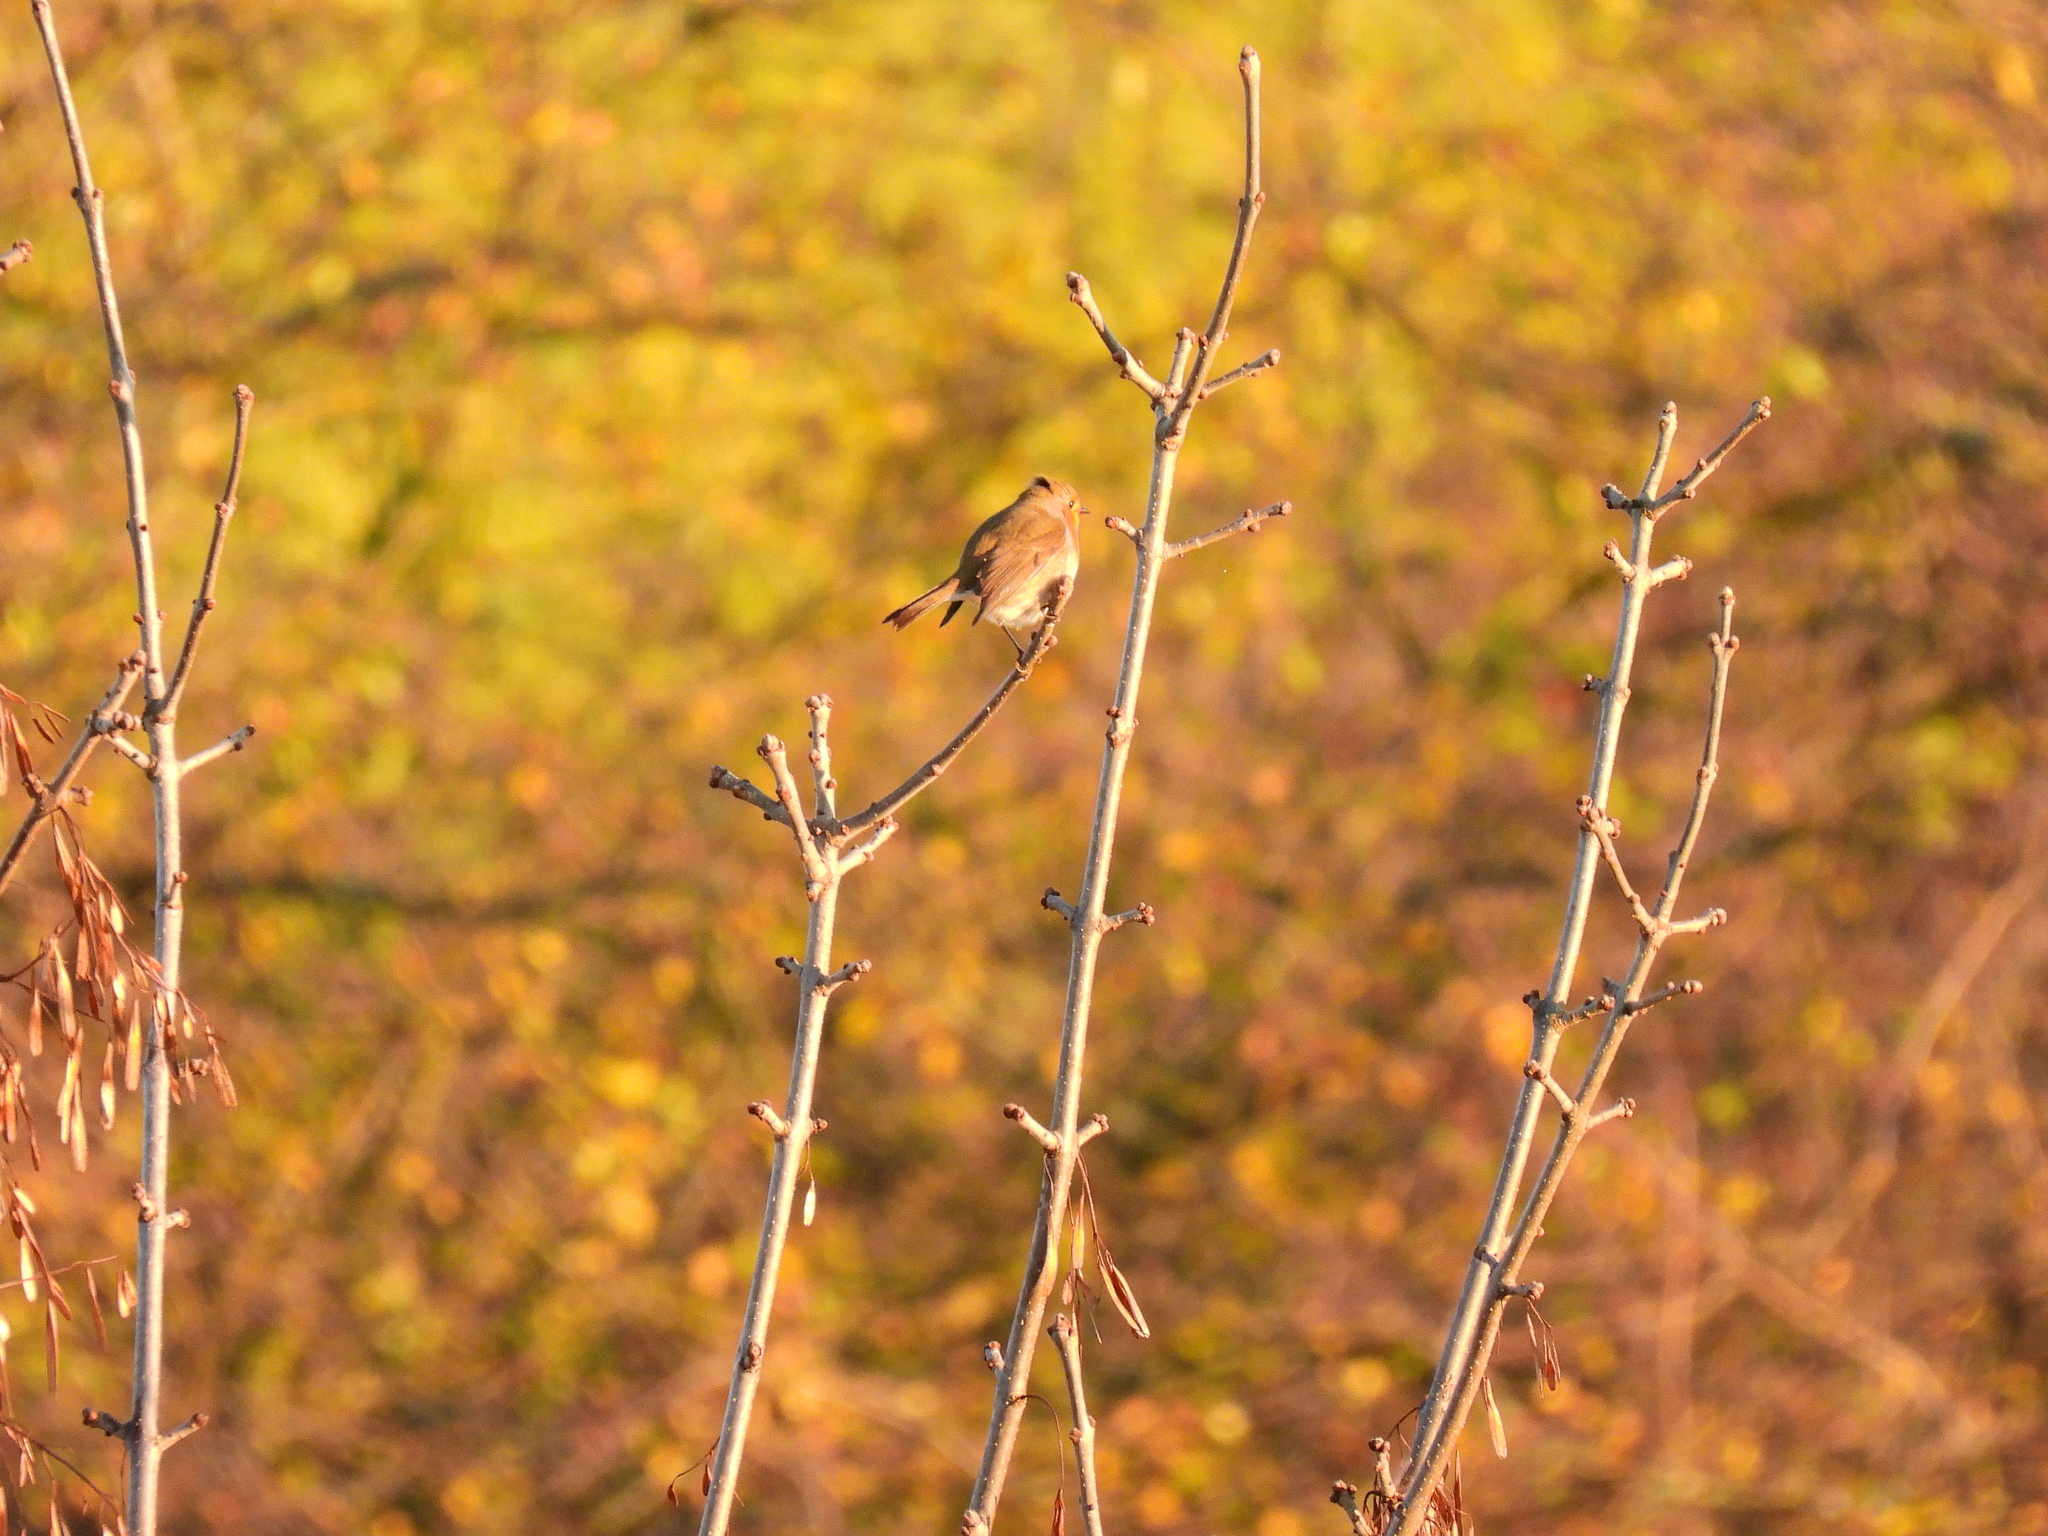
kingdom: Animalia
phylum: Chordata
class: Aves
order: Passeriformes
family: Muscicapidae
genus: Erithacus
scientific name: Erithacus rubecula
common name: European robin
